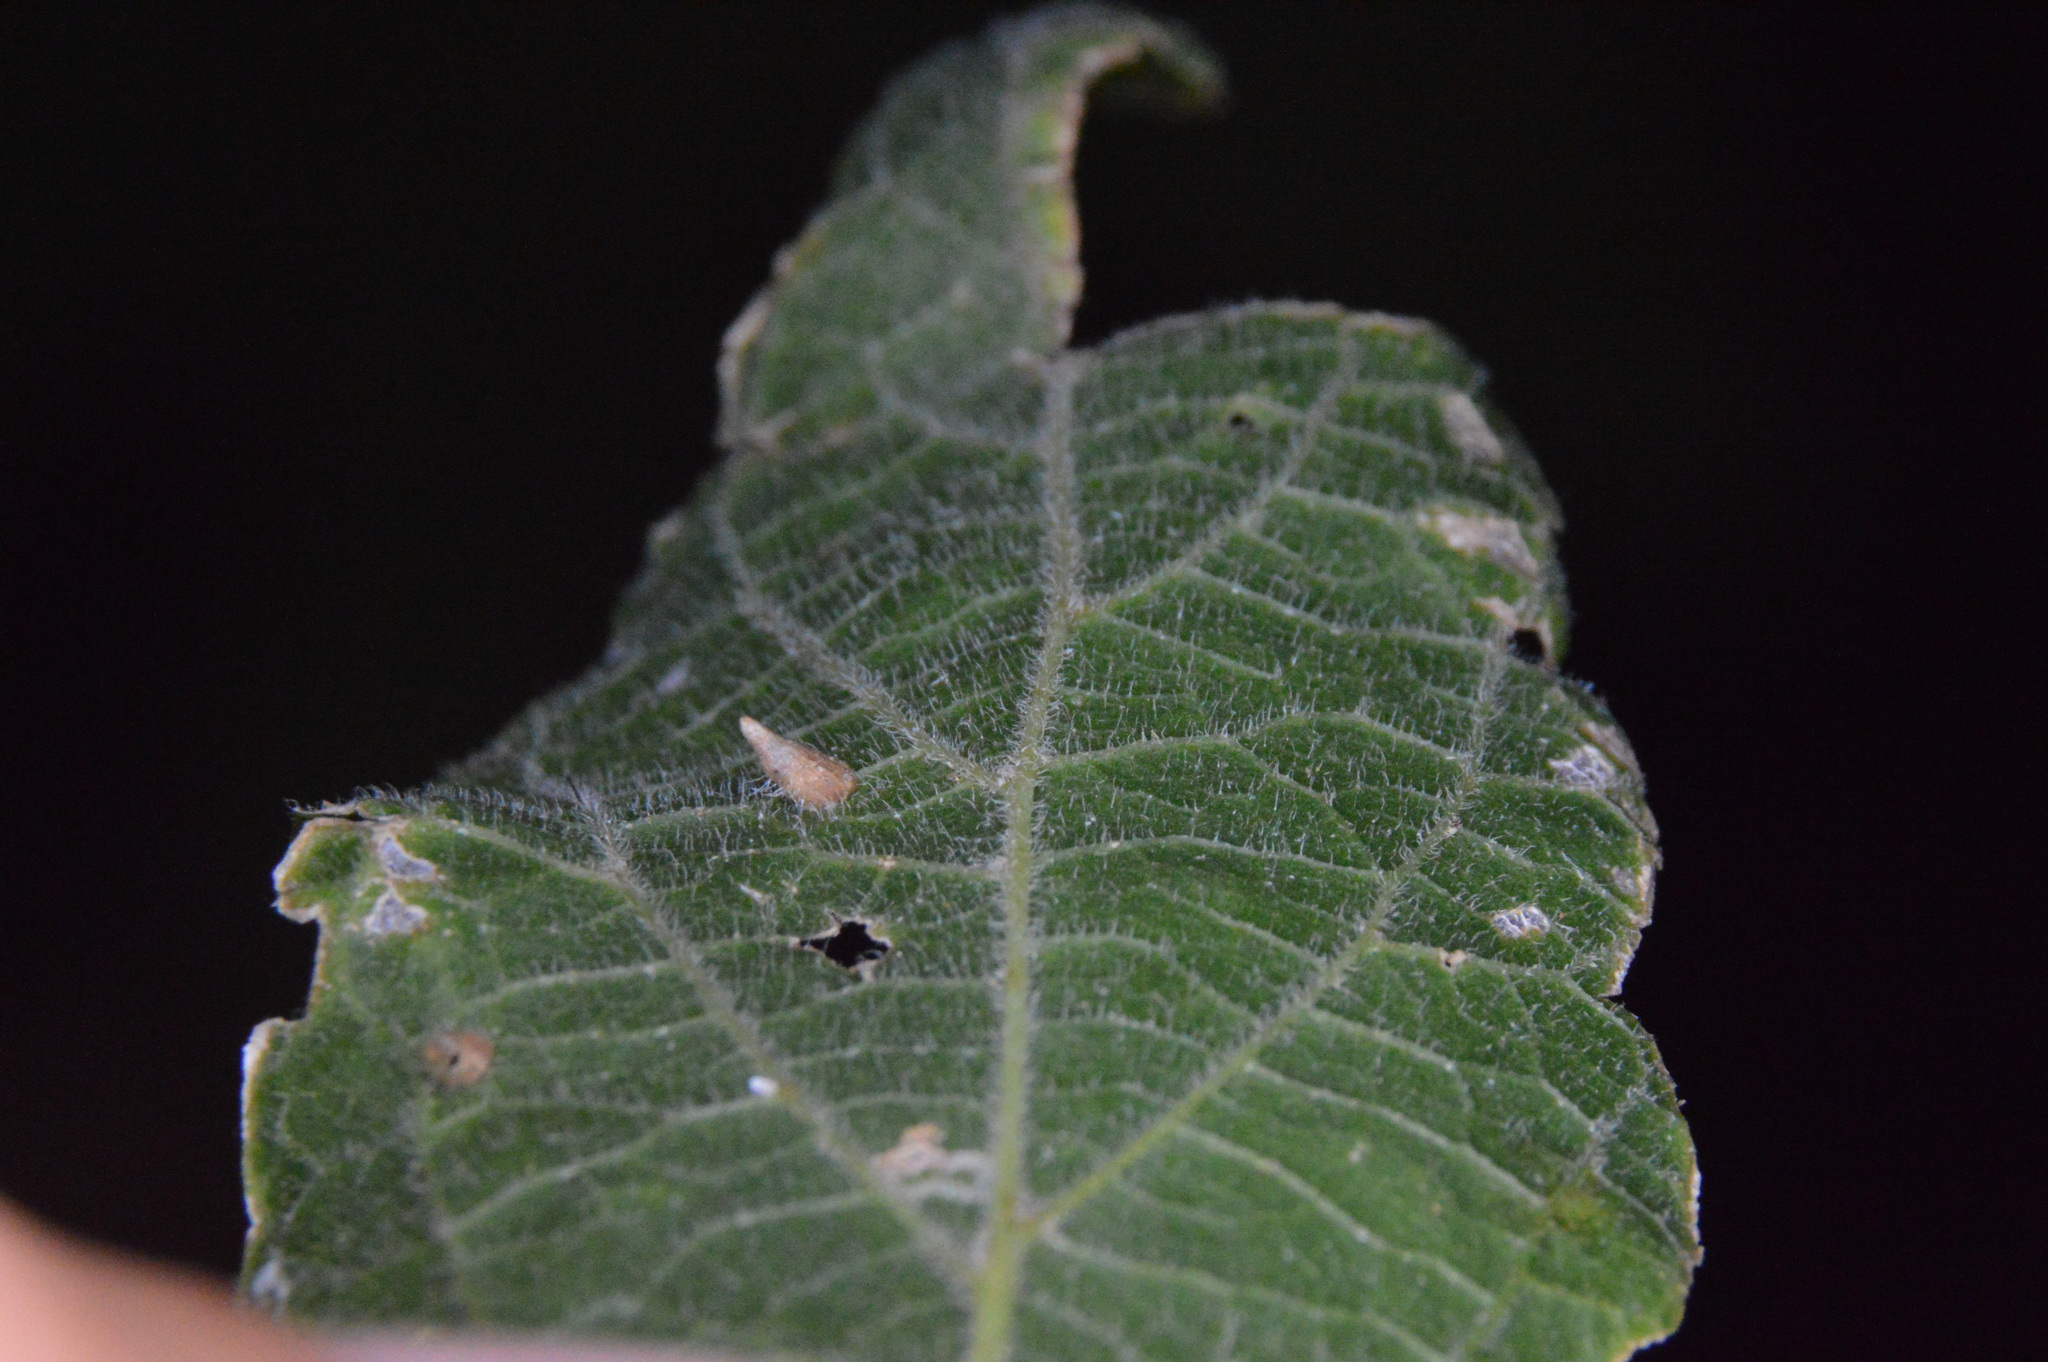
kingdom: Animalia
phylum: Arthropoda
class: Insecta
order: Diptera
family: Cecidomyiidae
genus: Celticecis
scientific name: Celticecis supina
